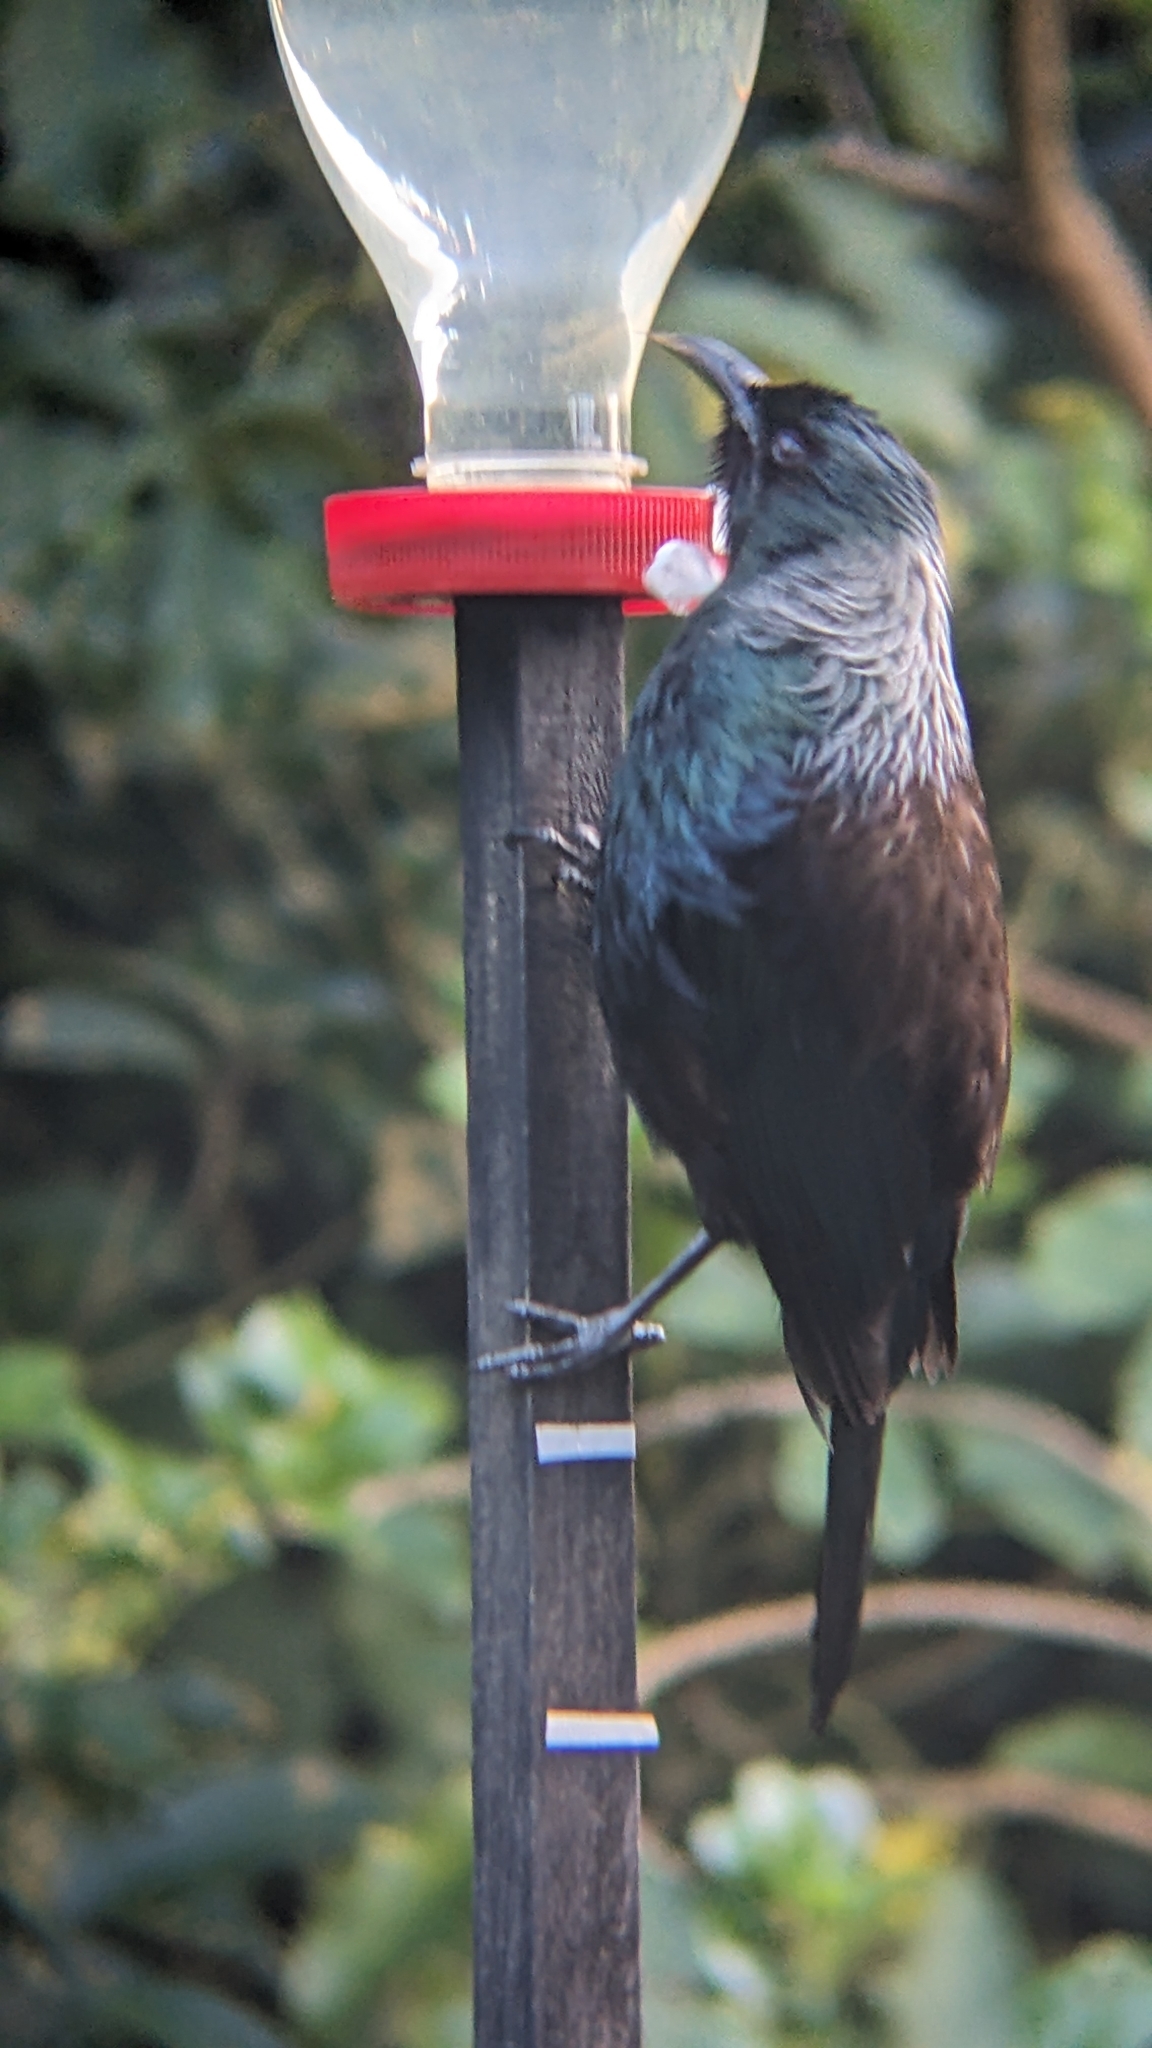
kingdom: Animalia
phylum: Chordata
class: Aves
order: Passeriformes
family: Meliphagidae
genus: Prosthemadera
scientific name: Prosthemadera novaeseelandiae
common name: Tui
